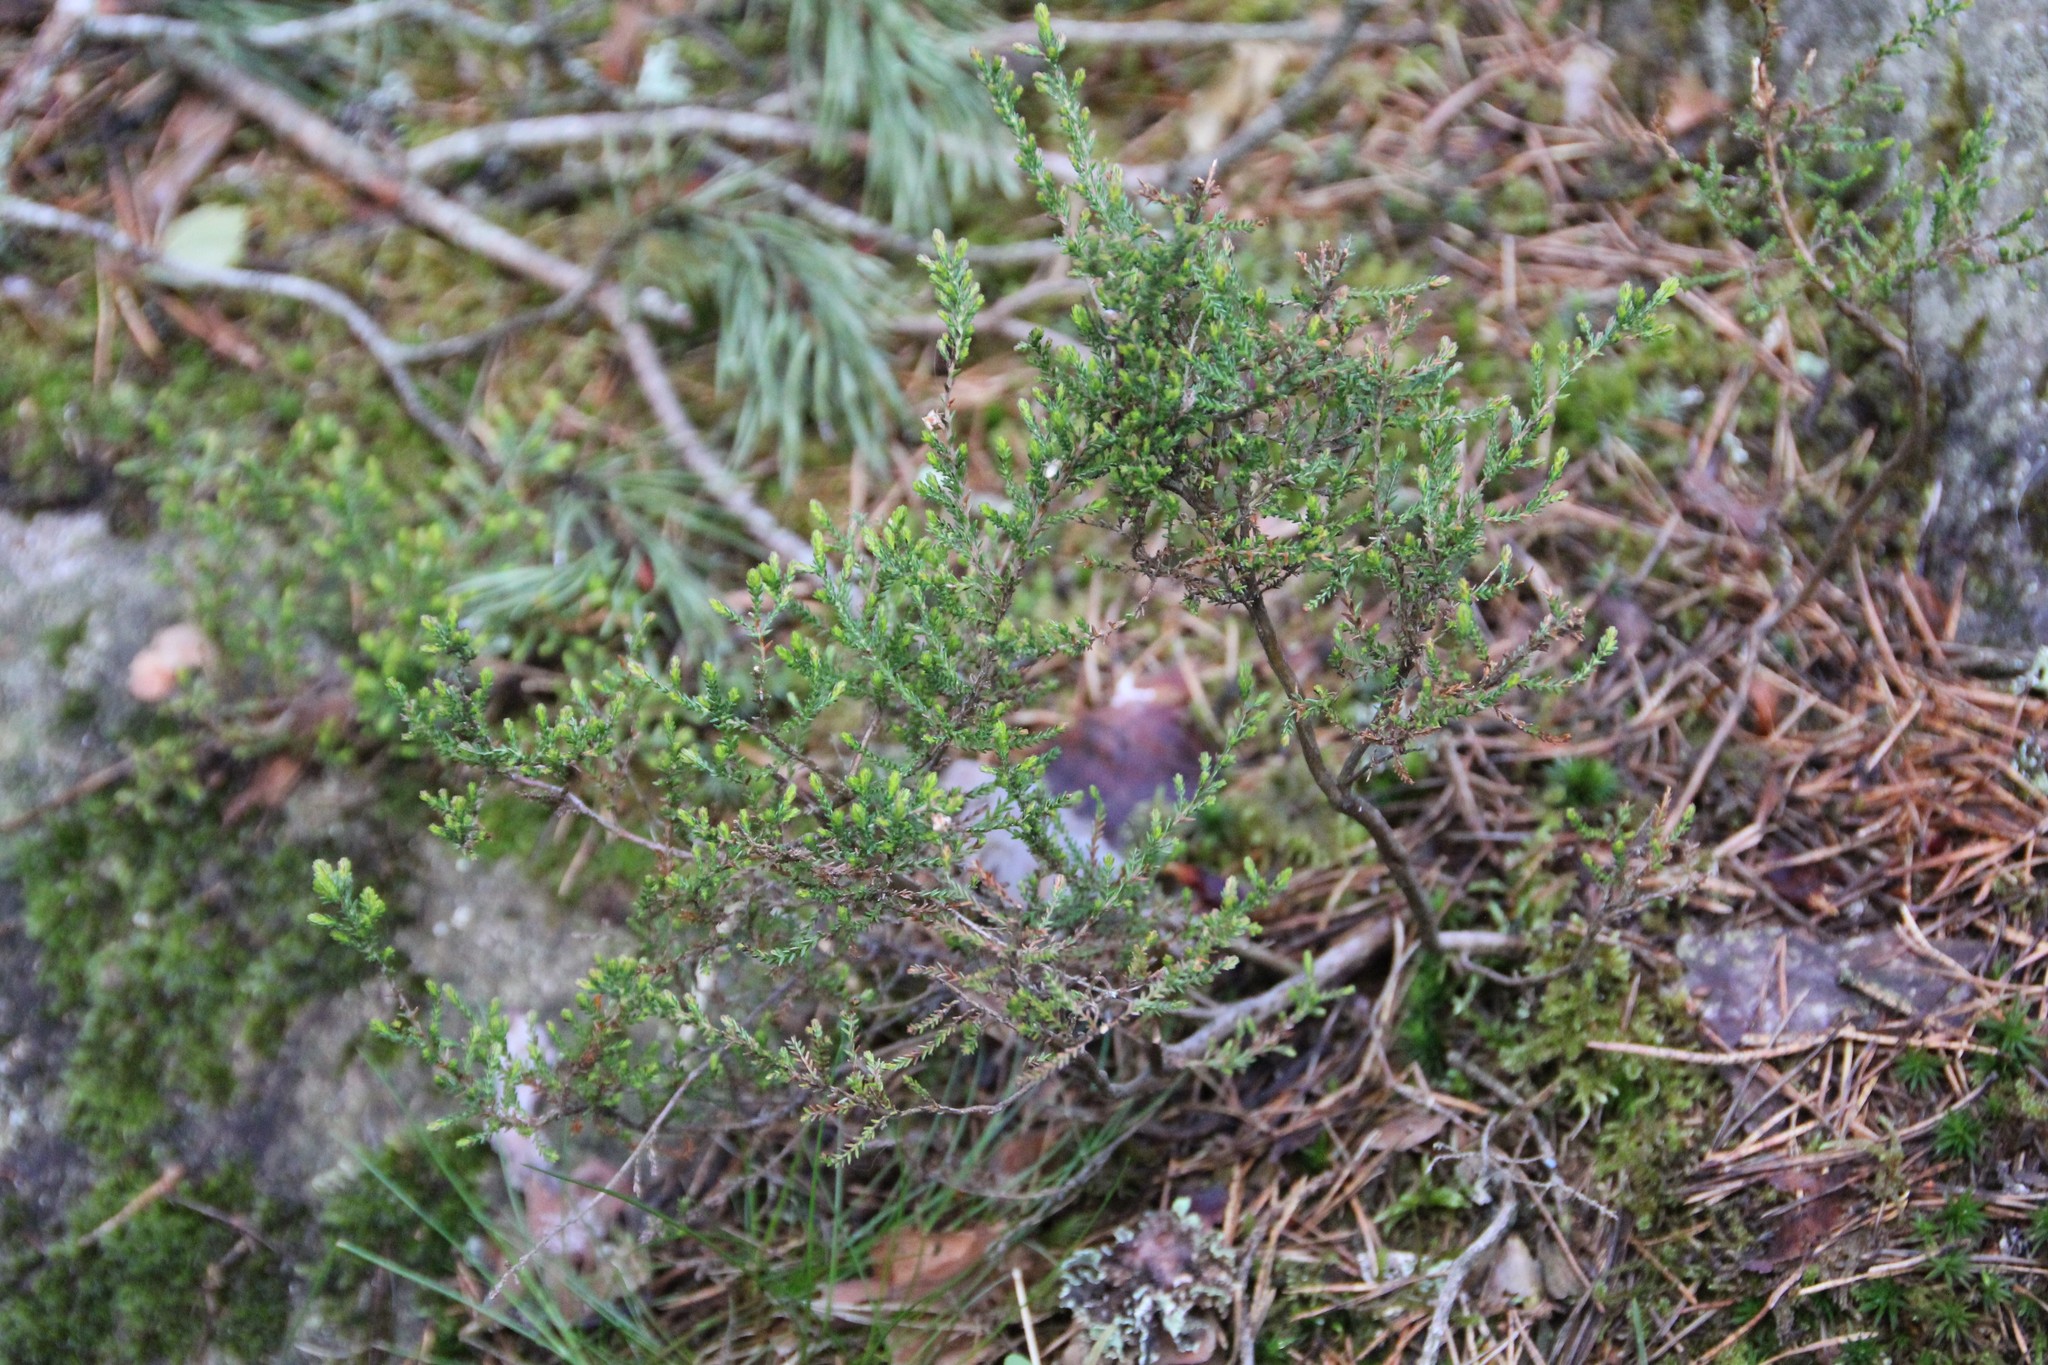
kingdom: Plantae
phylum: Tracheophyta
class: Magnoliopsida
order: Ericales
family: Ericaceae
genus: Calluna
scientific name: Calluna vulgaris
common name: Heather
